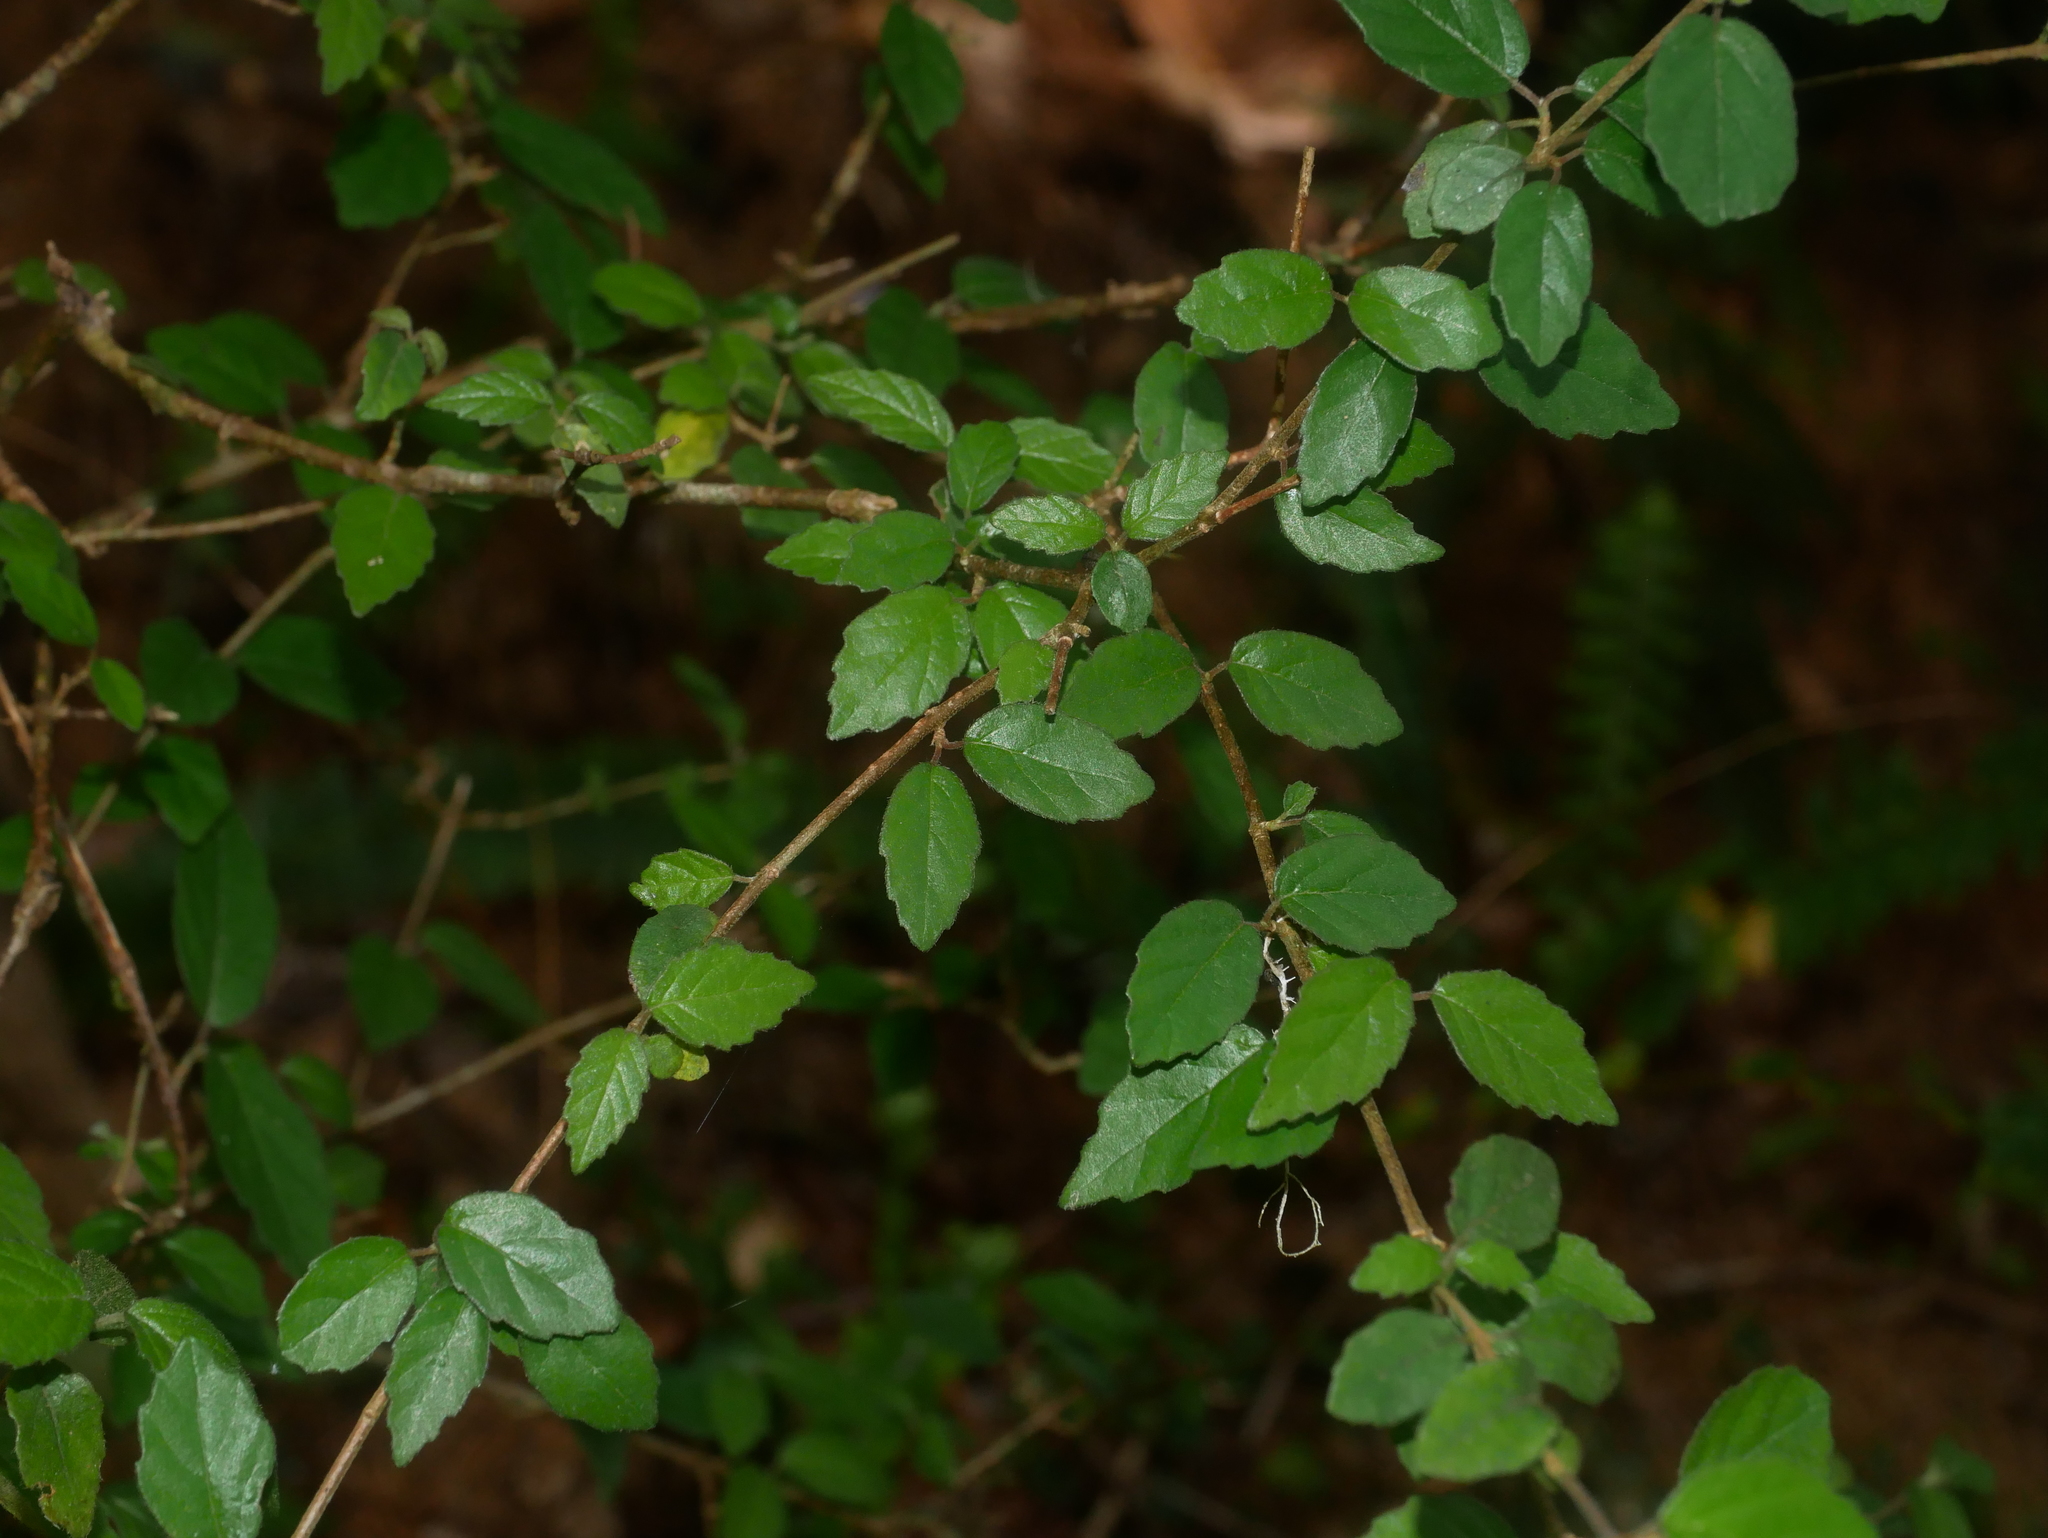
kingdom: Plantae
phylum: Tracheophyta
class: Magnoliopsida
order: Dipsacales
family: Viburnaceae
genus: Viburnum
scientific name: Viburnum parvifolium
